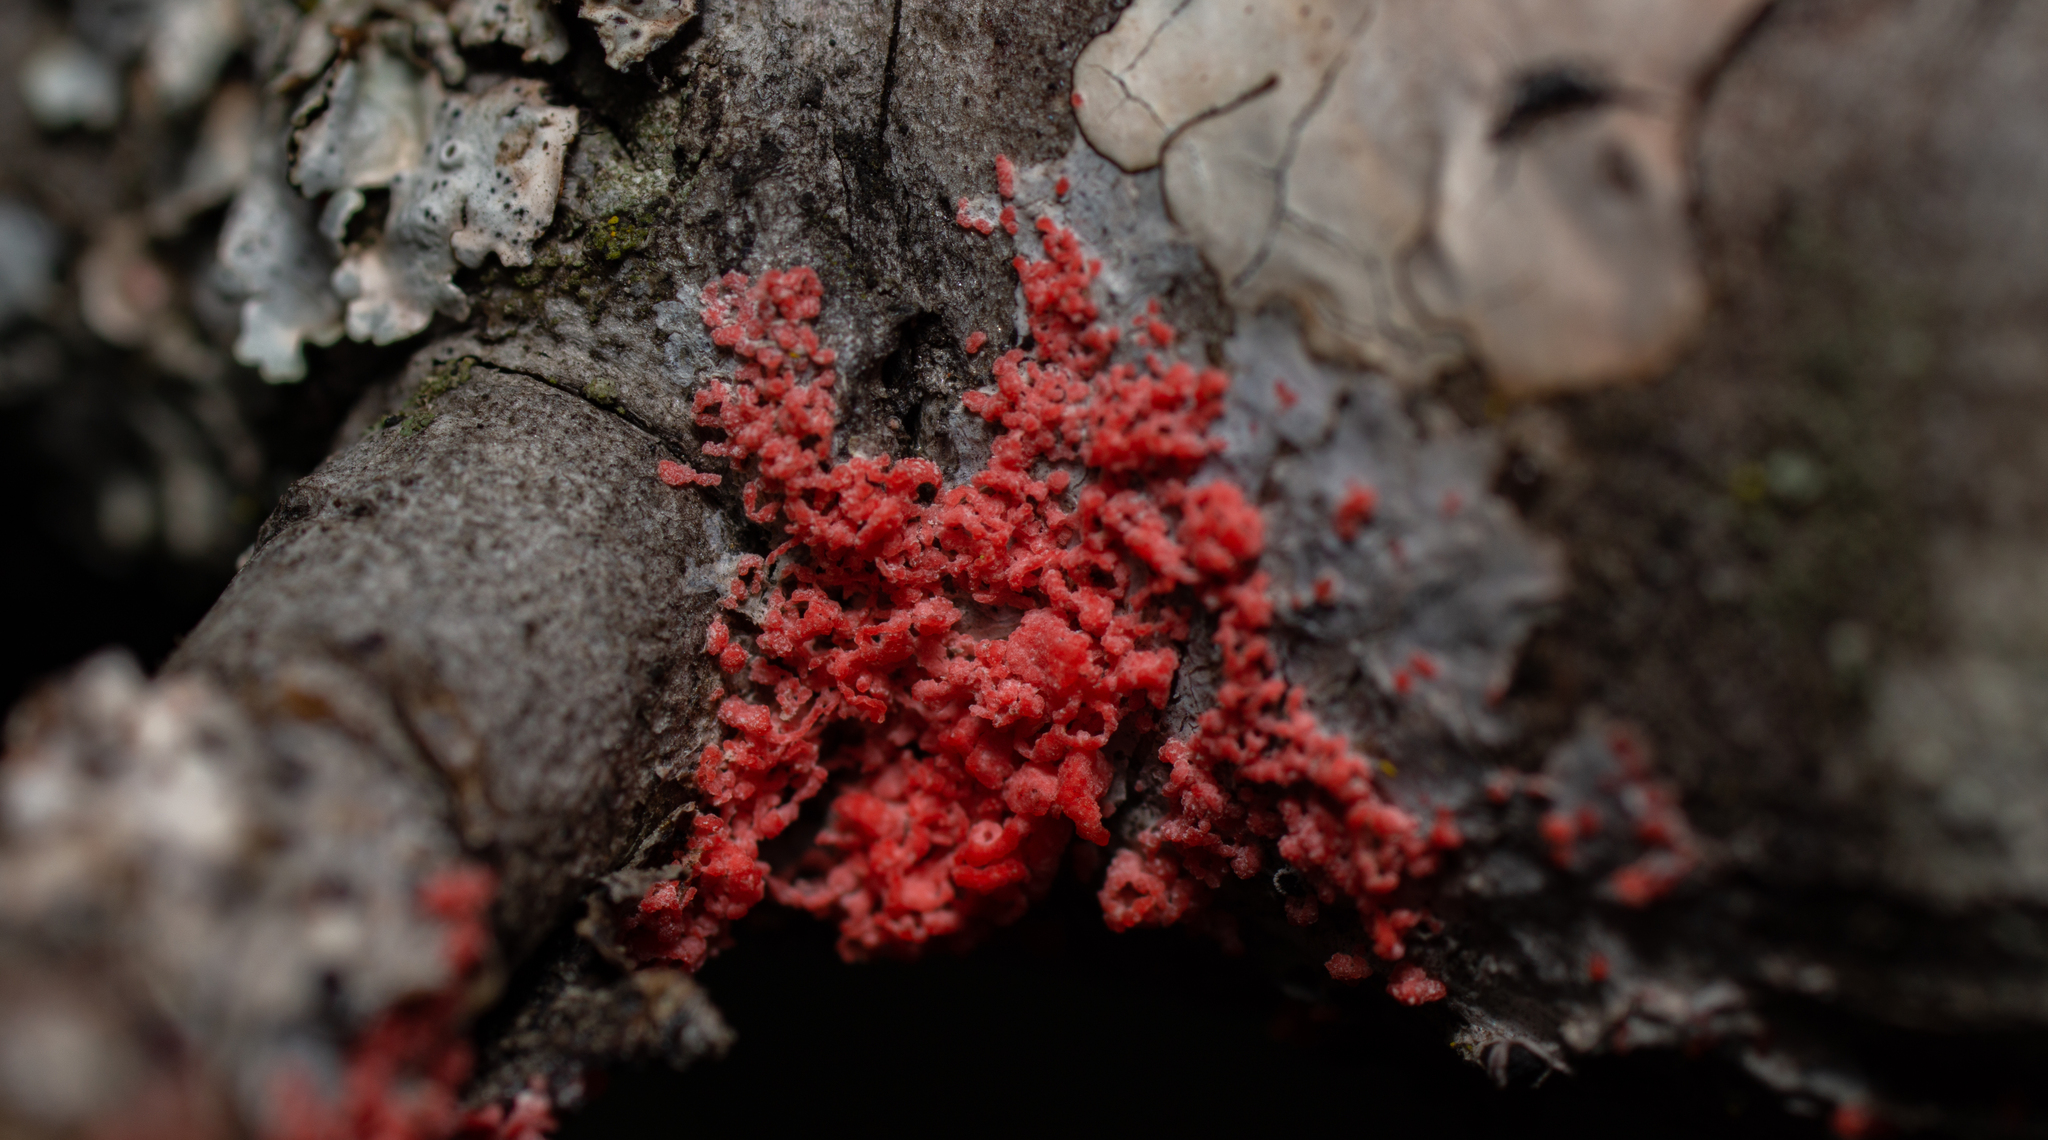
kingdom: Fungi
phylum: Basidiomycota
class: Agaricomycetes
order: Corticiales
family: Corticiaceae
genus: Marchandiomyces
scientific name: Marchandiomyces corallinus
